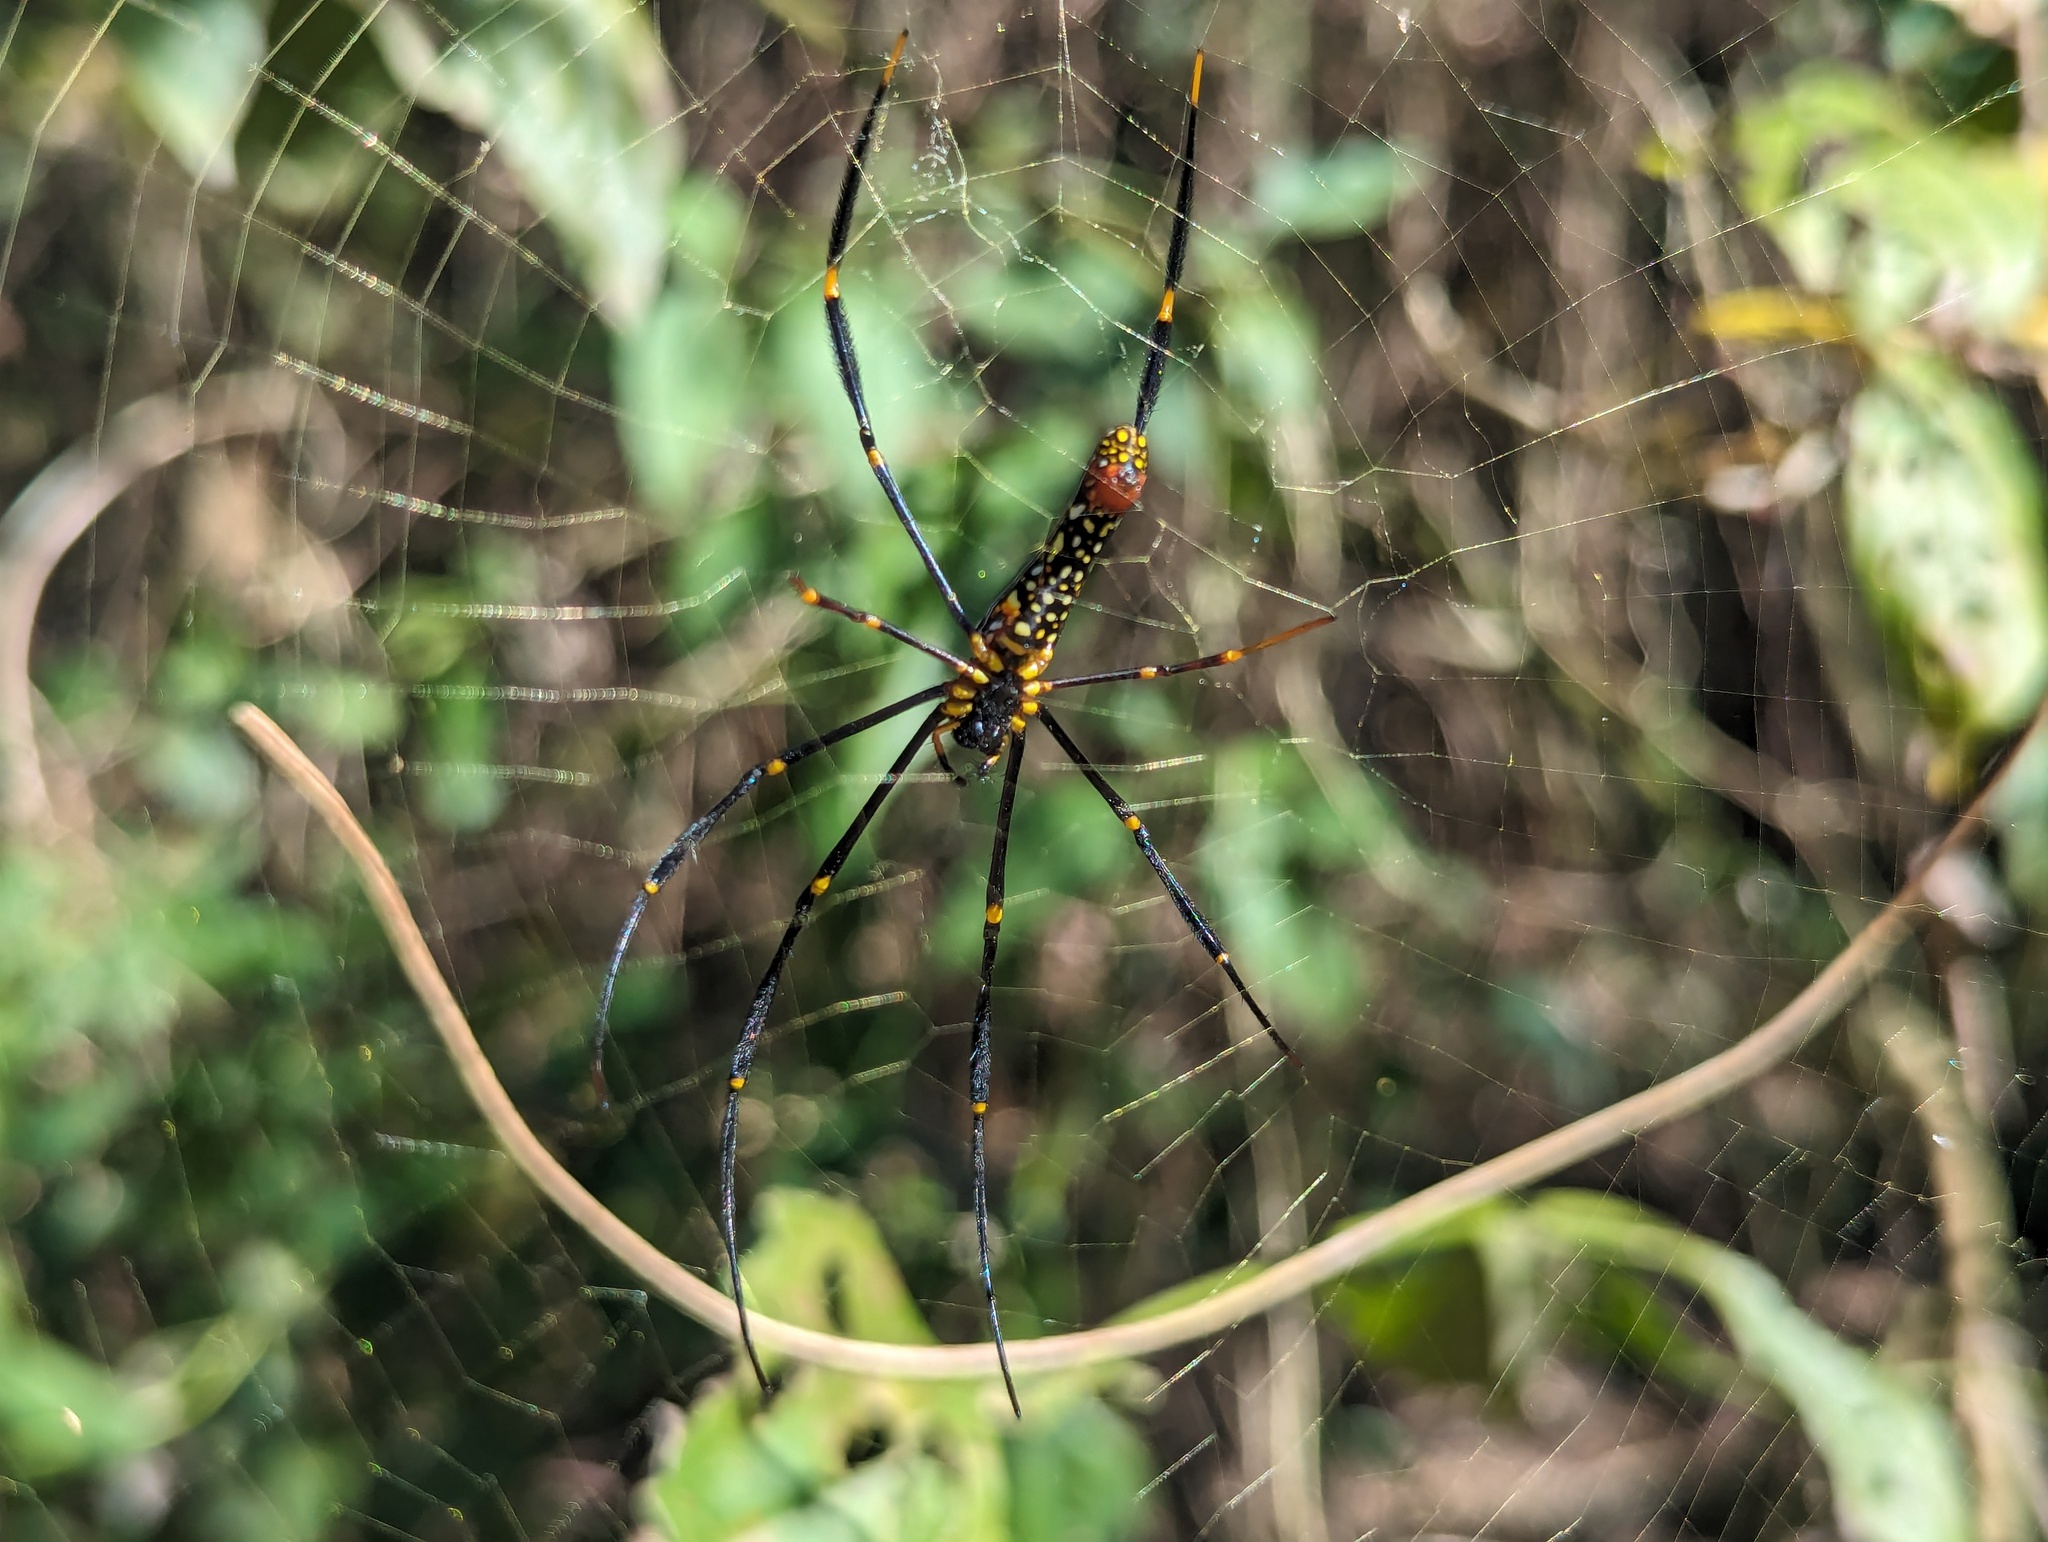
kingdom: Animalia
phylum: Arthropoda
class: Arachnida
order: Araneae
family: Araneidae
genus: Nephila
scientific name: Nephila pilipes
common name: Giant golden orb weaver
